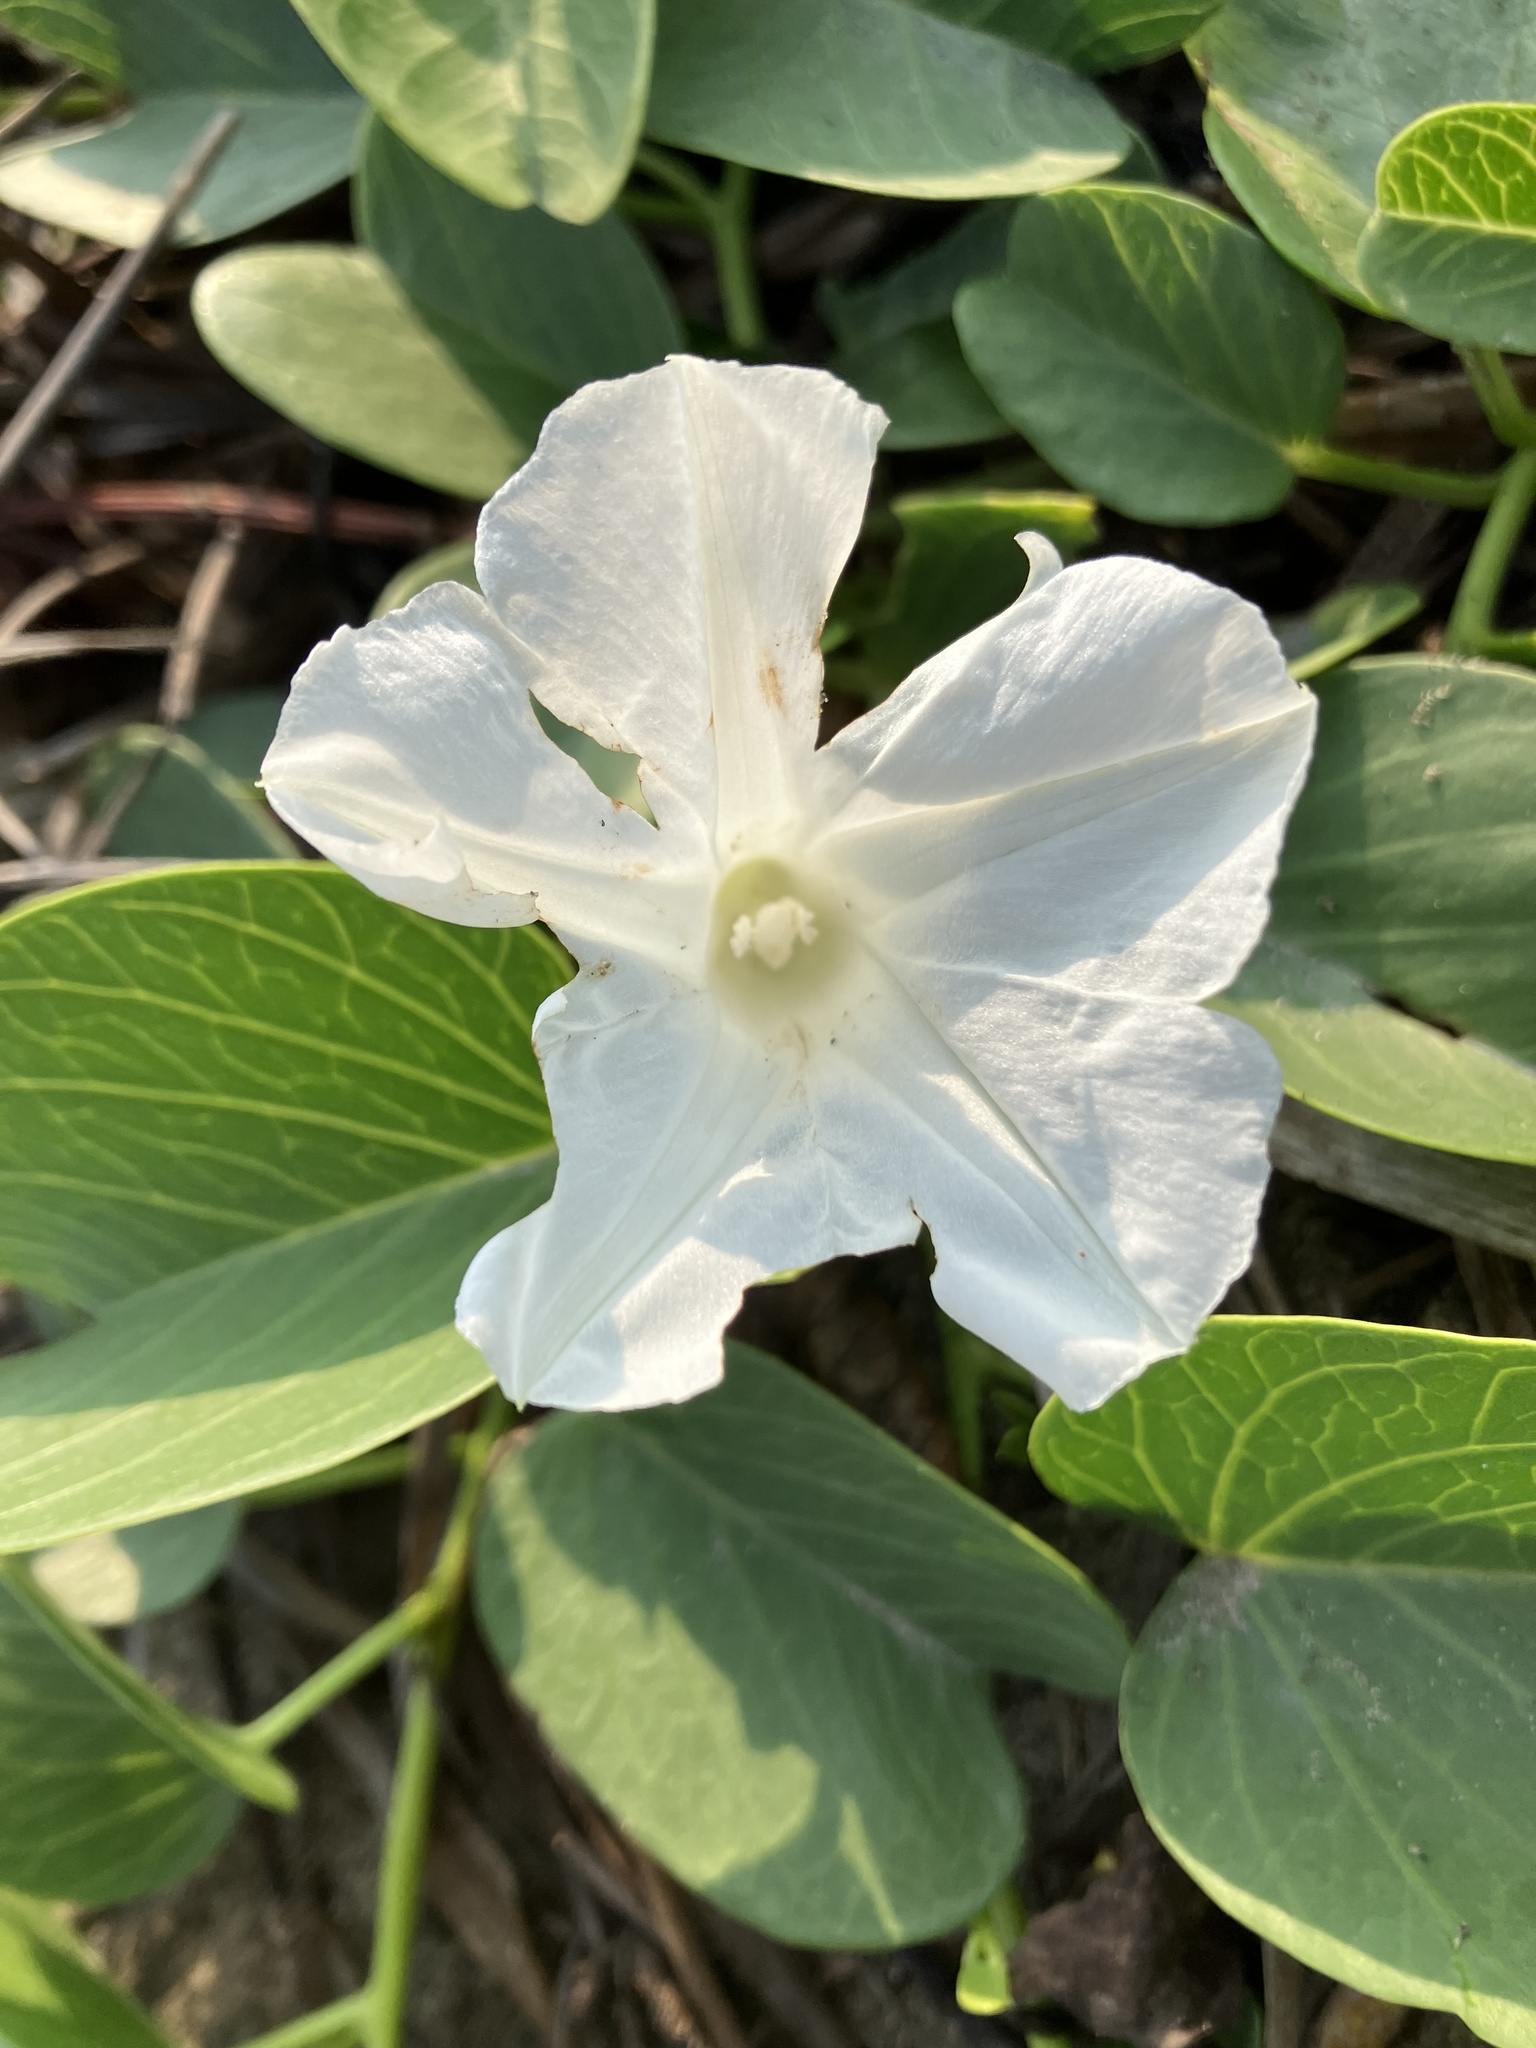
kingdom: Plantae
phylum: Tracheophyta
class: Magnoliopsida
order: Solanales
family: Convolvulaceae
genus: Ipomoea
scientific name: Ipomoea pes-caprae
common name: Beach morning glory
